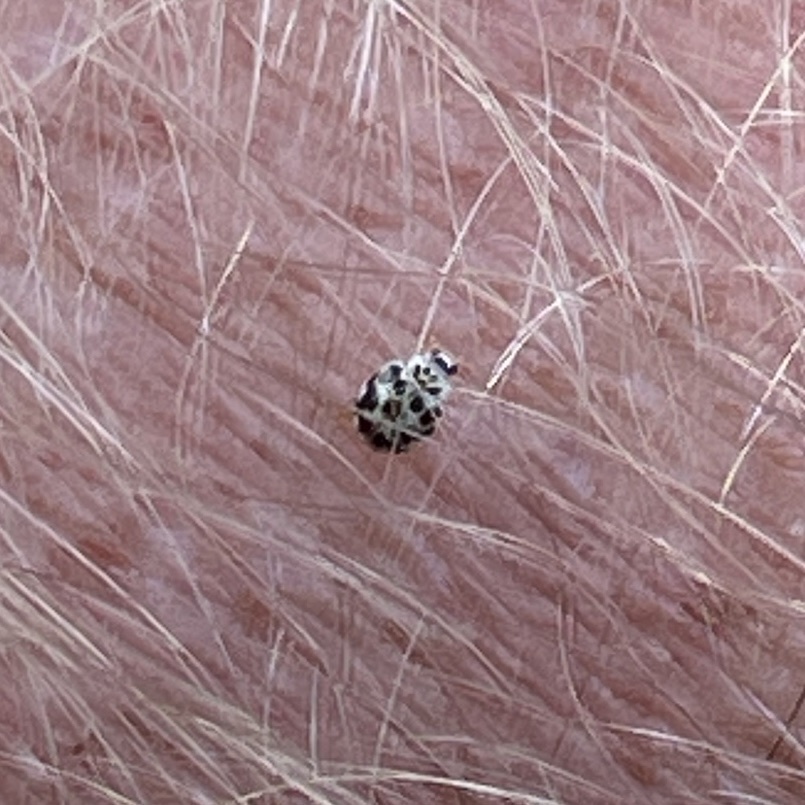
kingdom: Animalia
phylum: Arthropoda
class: Insecta
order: Coleoptera
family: Coccinellidae
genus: Psyllobora
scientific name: Psyllobora vigintimaculata
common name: Ladybird beetle
